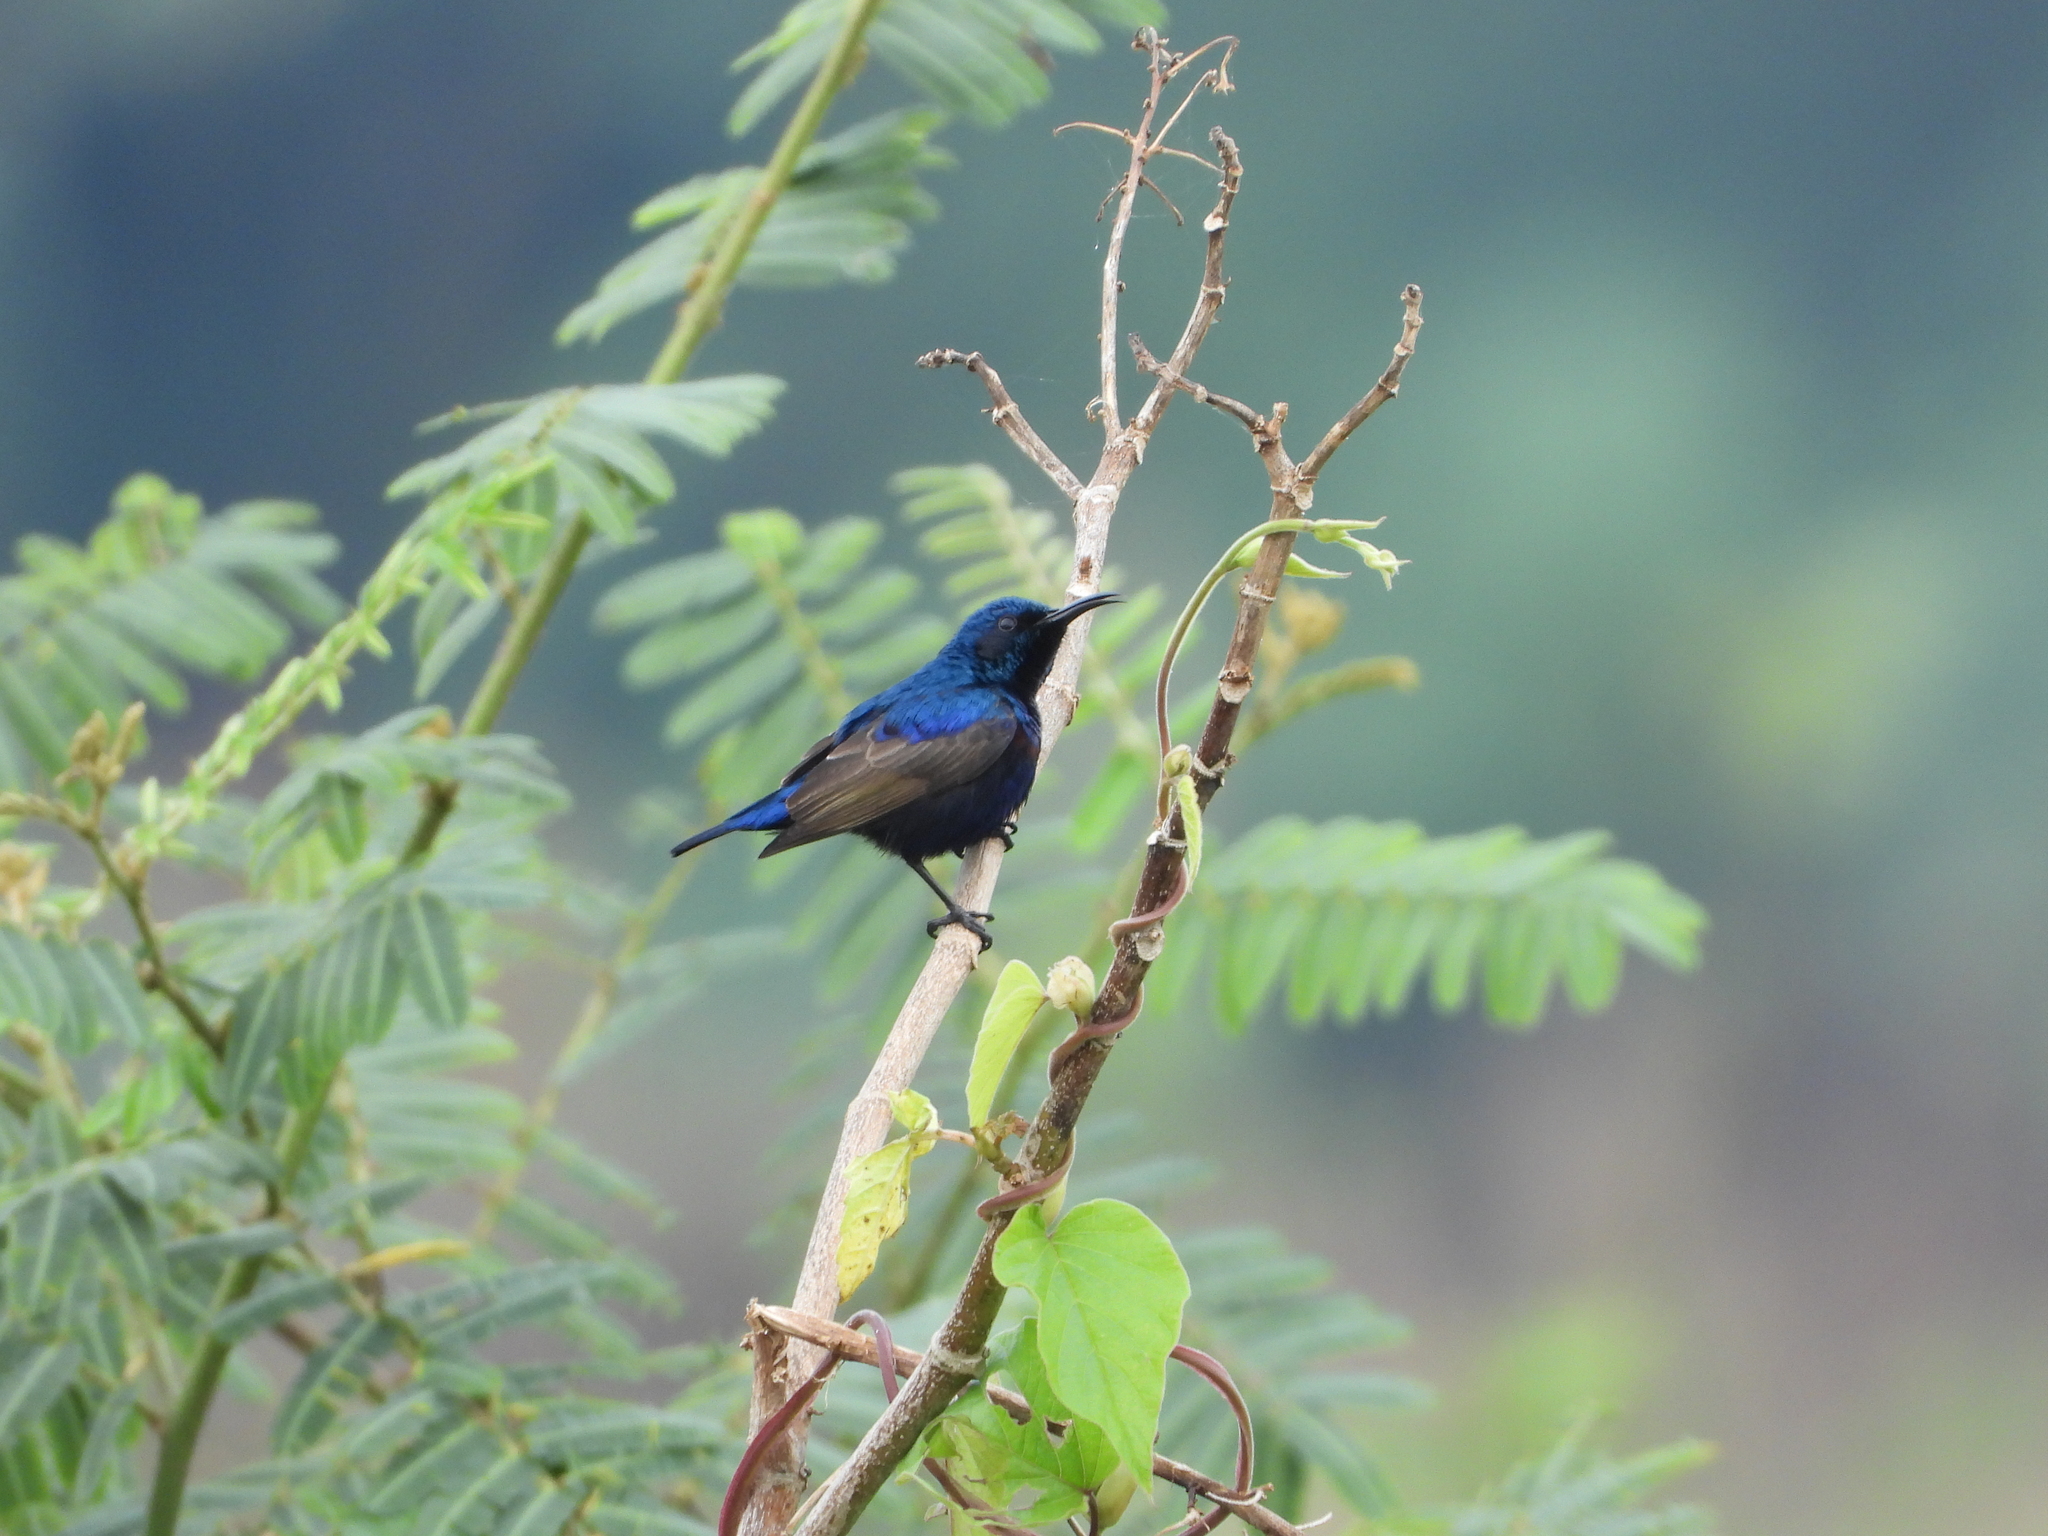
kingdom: Animalia
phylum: Chordata
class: Aves
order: Passeriformes
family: Nectariniidae
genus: Cinnyris
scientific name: Cinnyris asiaticus
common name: Purple sunbird
